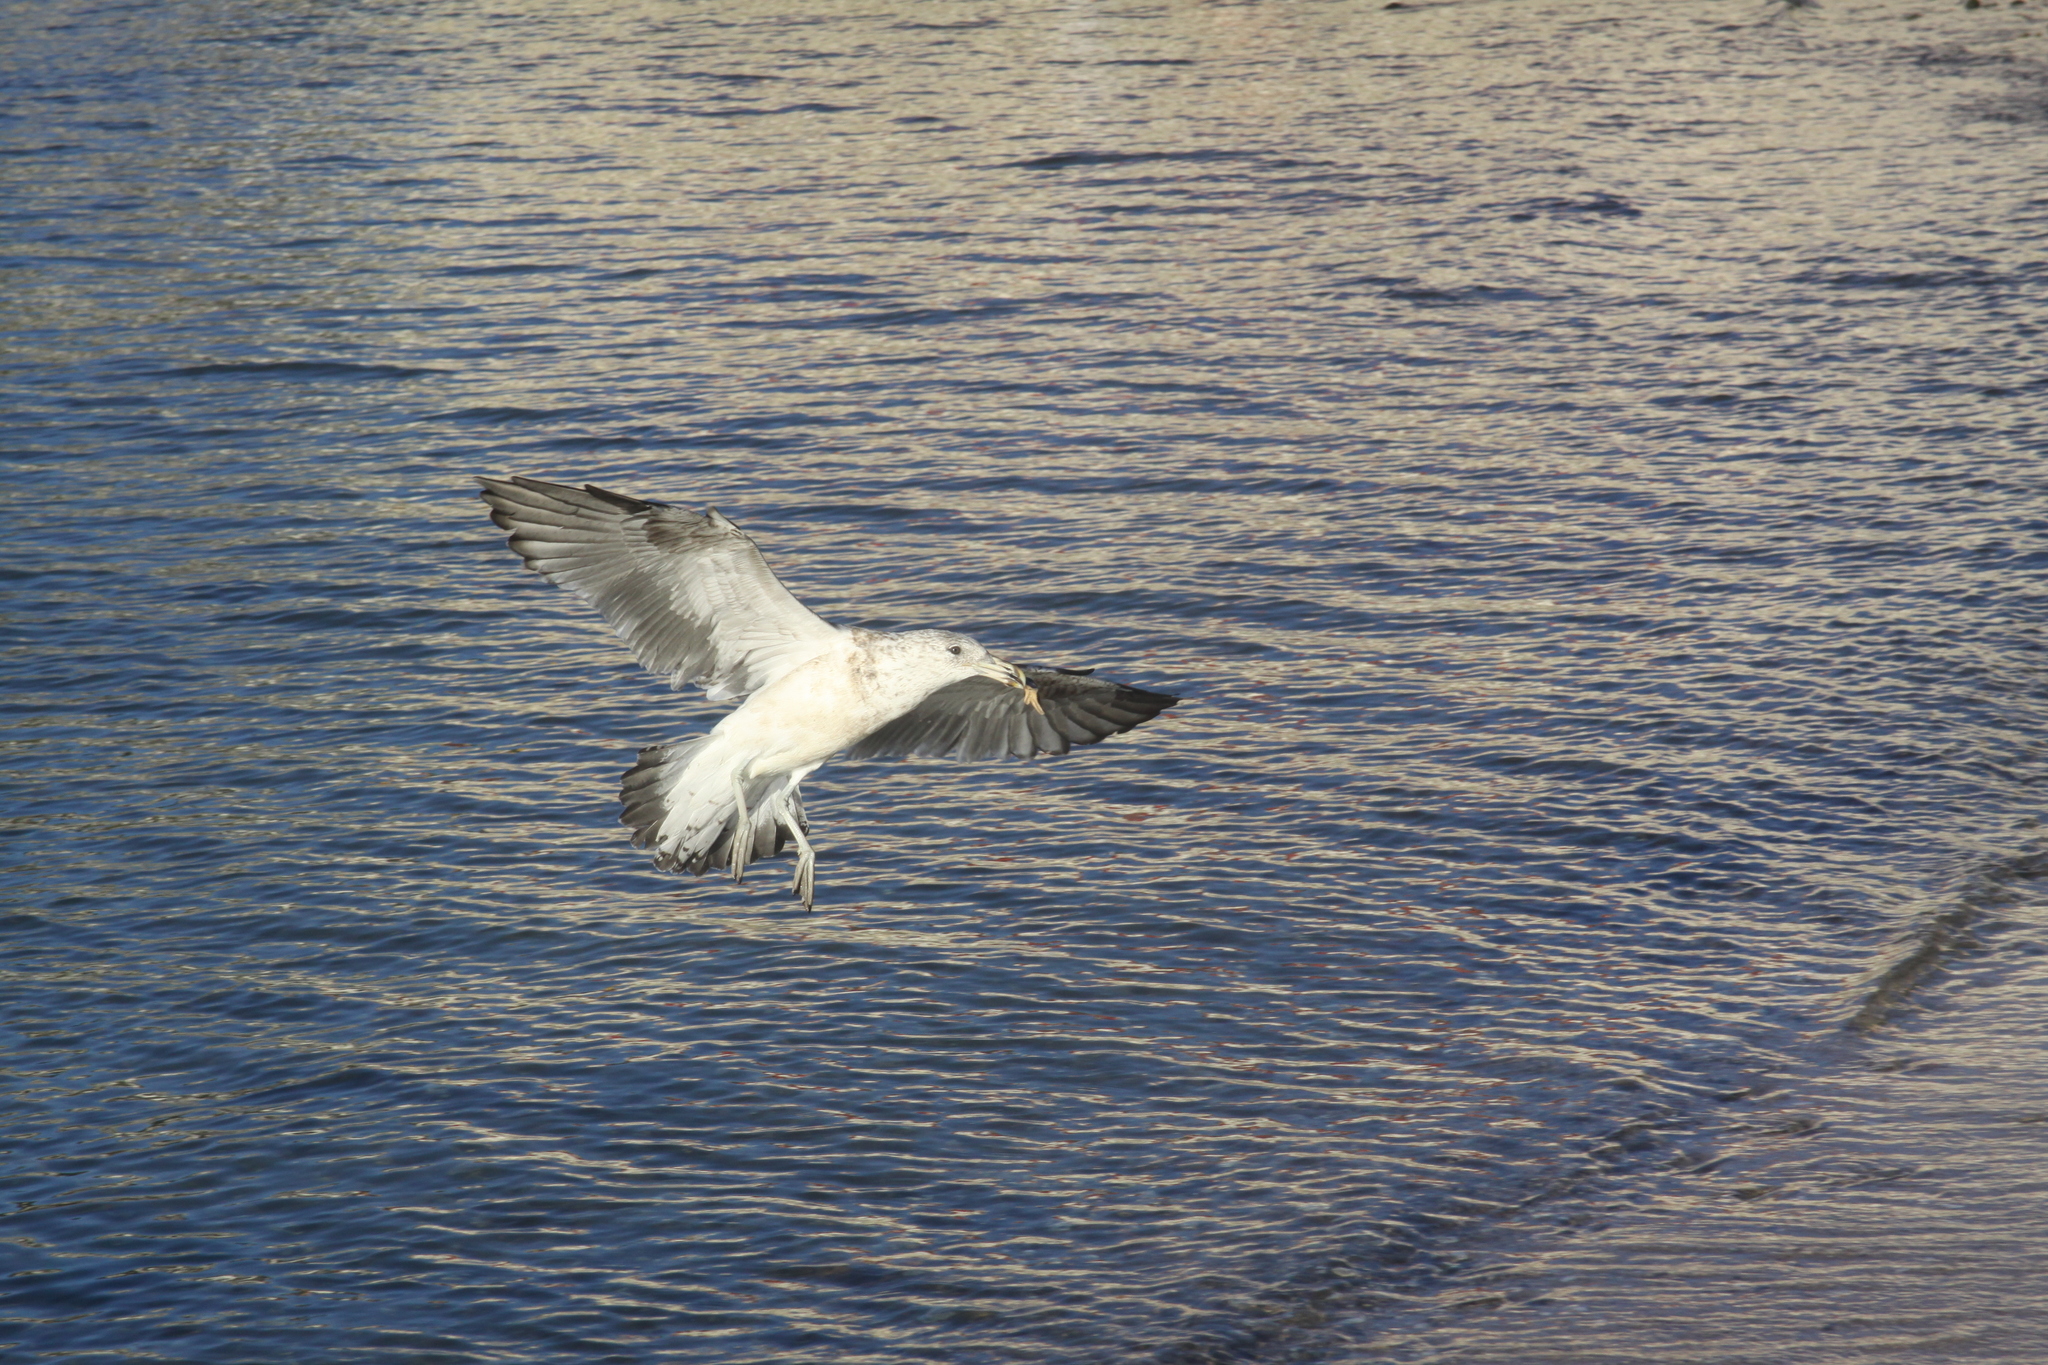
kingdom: Animalia
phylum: Chordata
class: Aves
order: Charadriiformes
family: Laridae
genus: Larus
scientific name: Larus dominicanus
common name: Kelp gull
